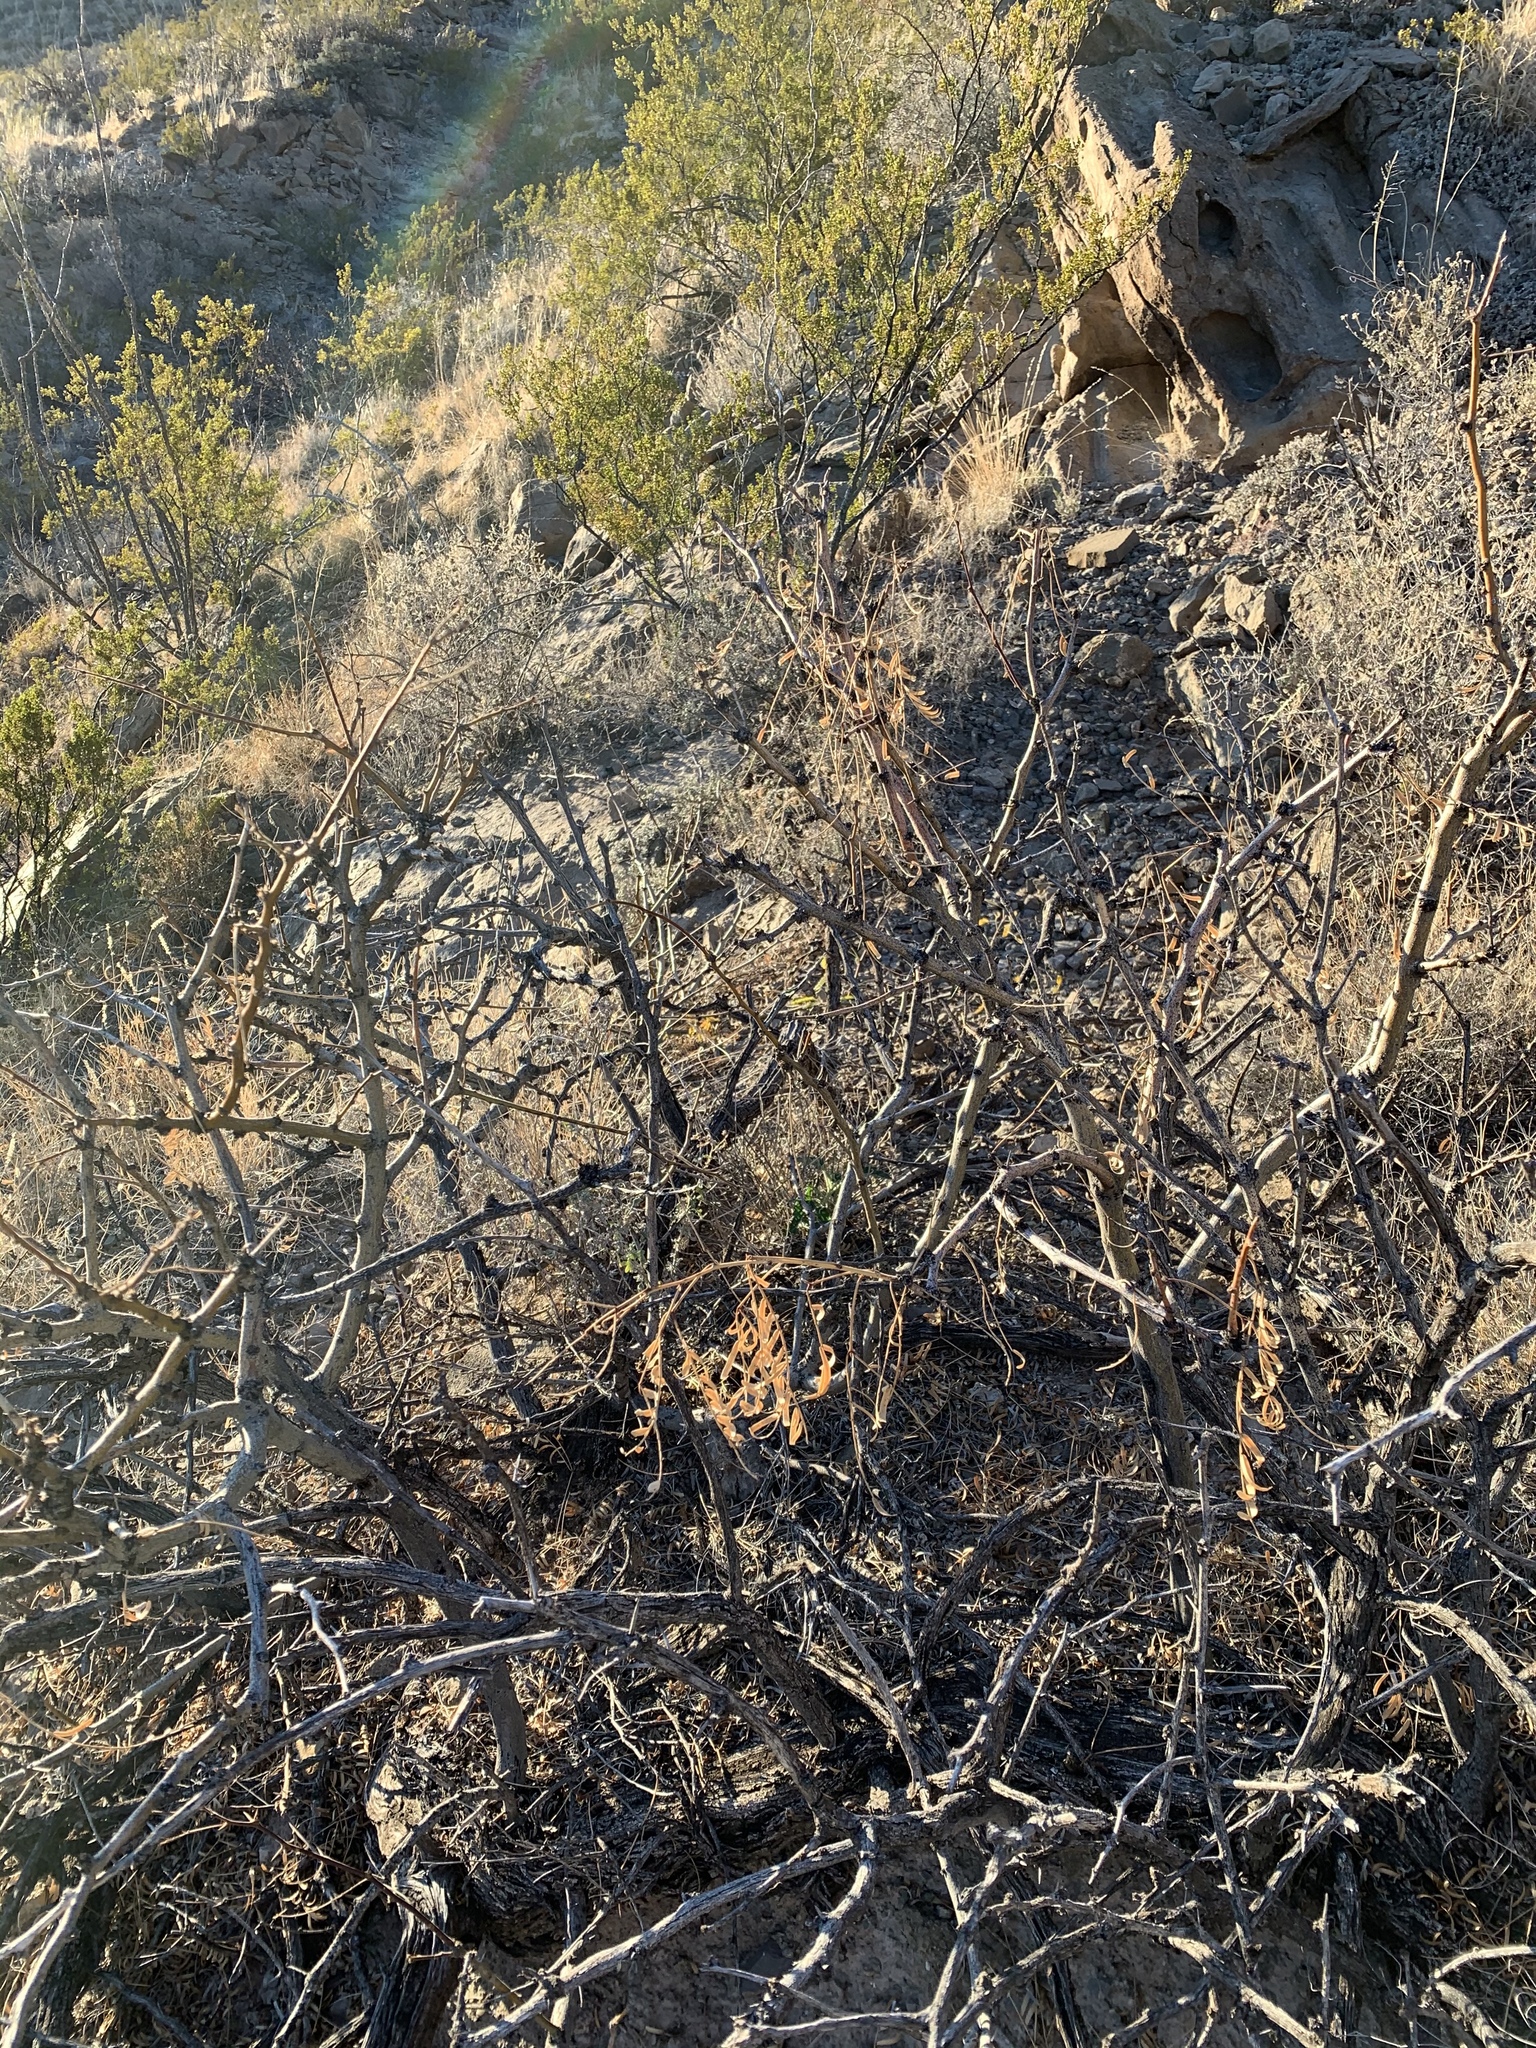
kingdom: Plantae
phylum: Tracheophyta
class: Magnoliopsida
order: Fabales
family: Fabaceae
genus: Prosopis
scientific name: Prosopis glandulosa
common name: Honey mesquite
